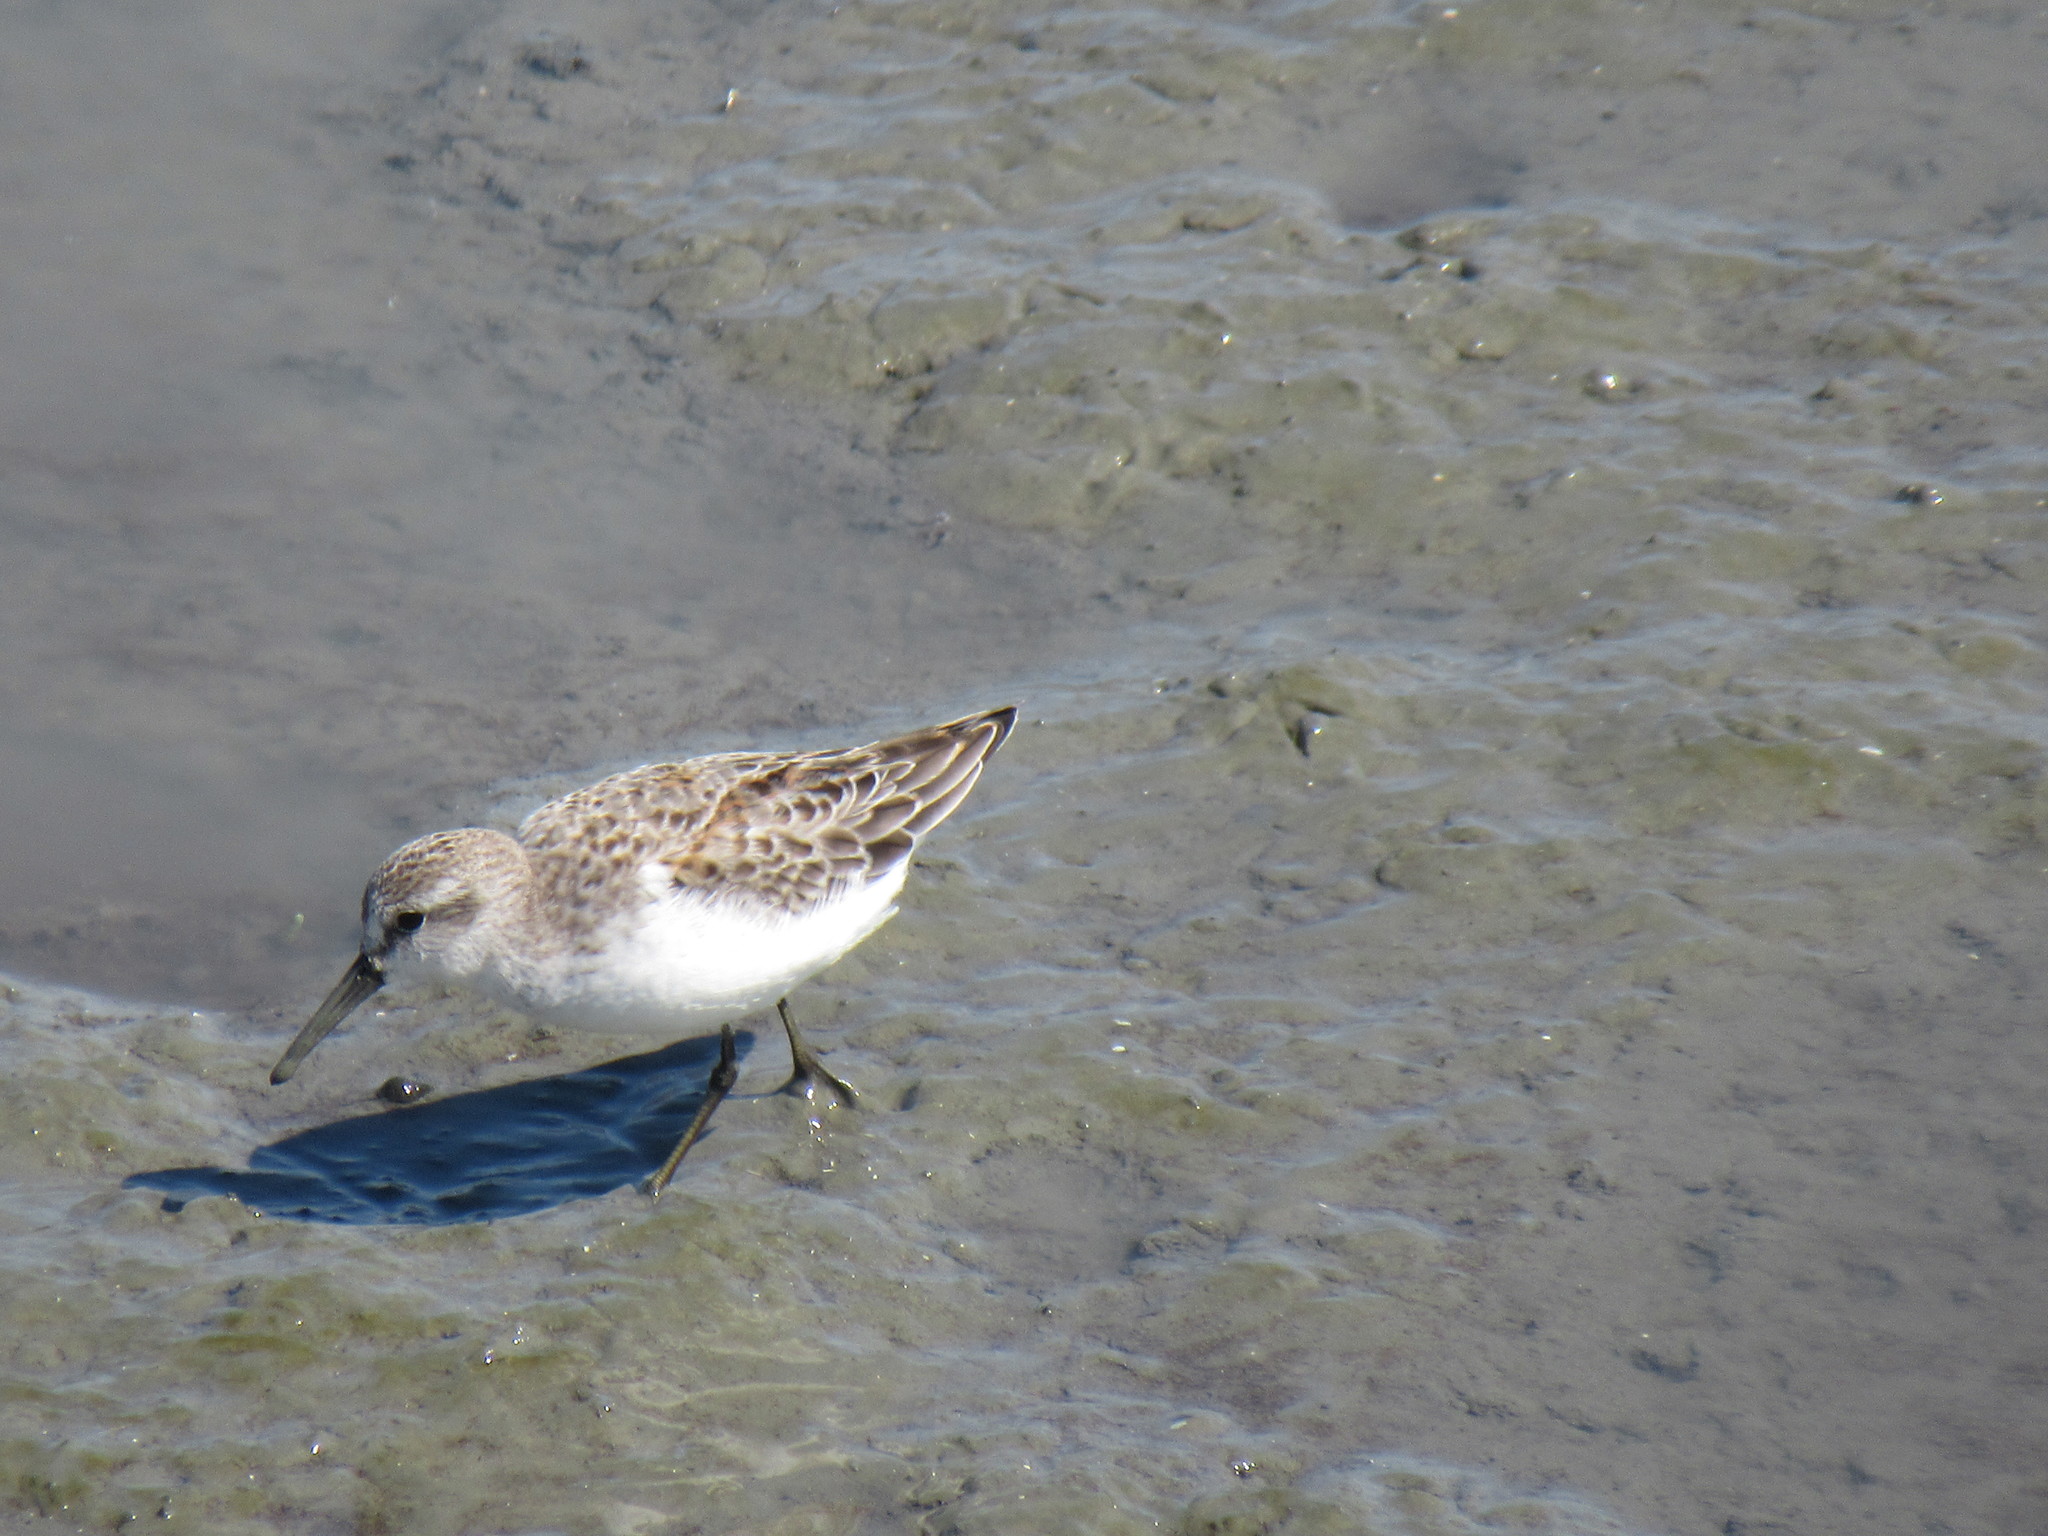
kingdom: Animalia
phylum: Chordata
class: Aves
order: Charadriiformes
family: Scolopacidae
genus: Calidris
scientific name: Calidris mauri
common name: Western sandpiper
